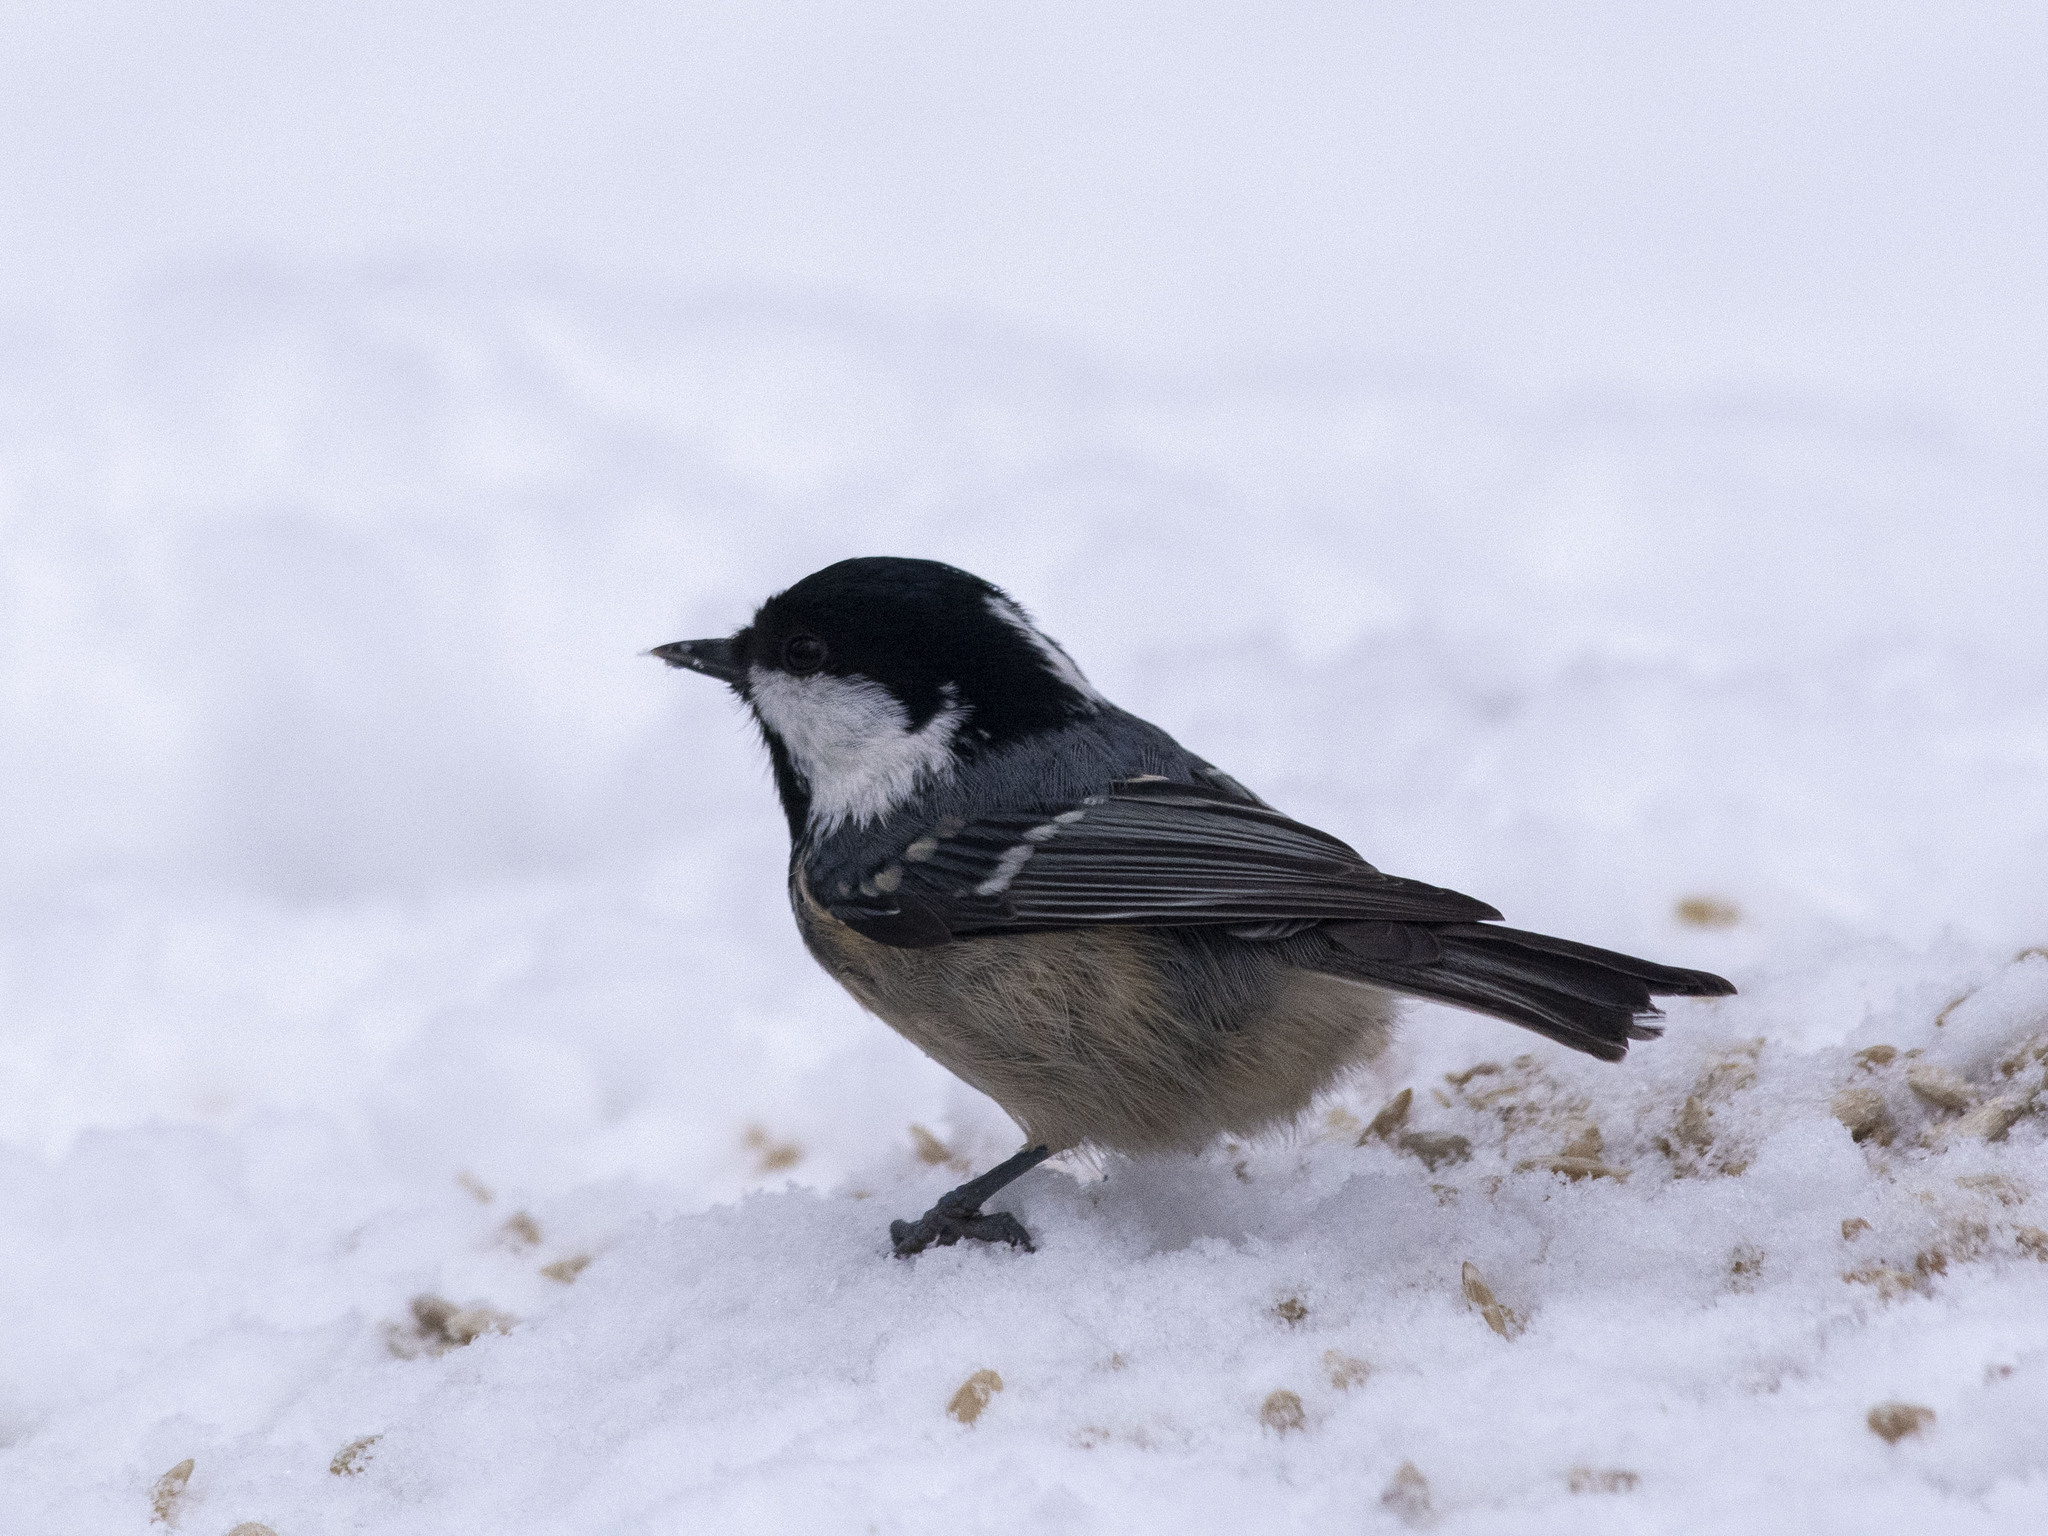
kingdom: Animalia
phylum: Chordata
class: Aves
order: Passeriformes
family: Paridae
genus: Periparus
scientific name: Periparus ater
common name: Coal tit
